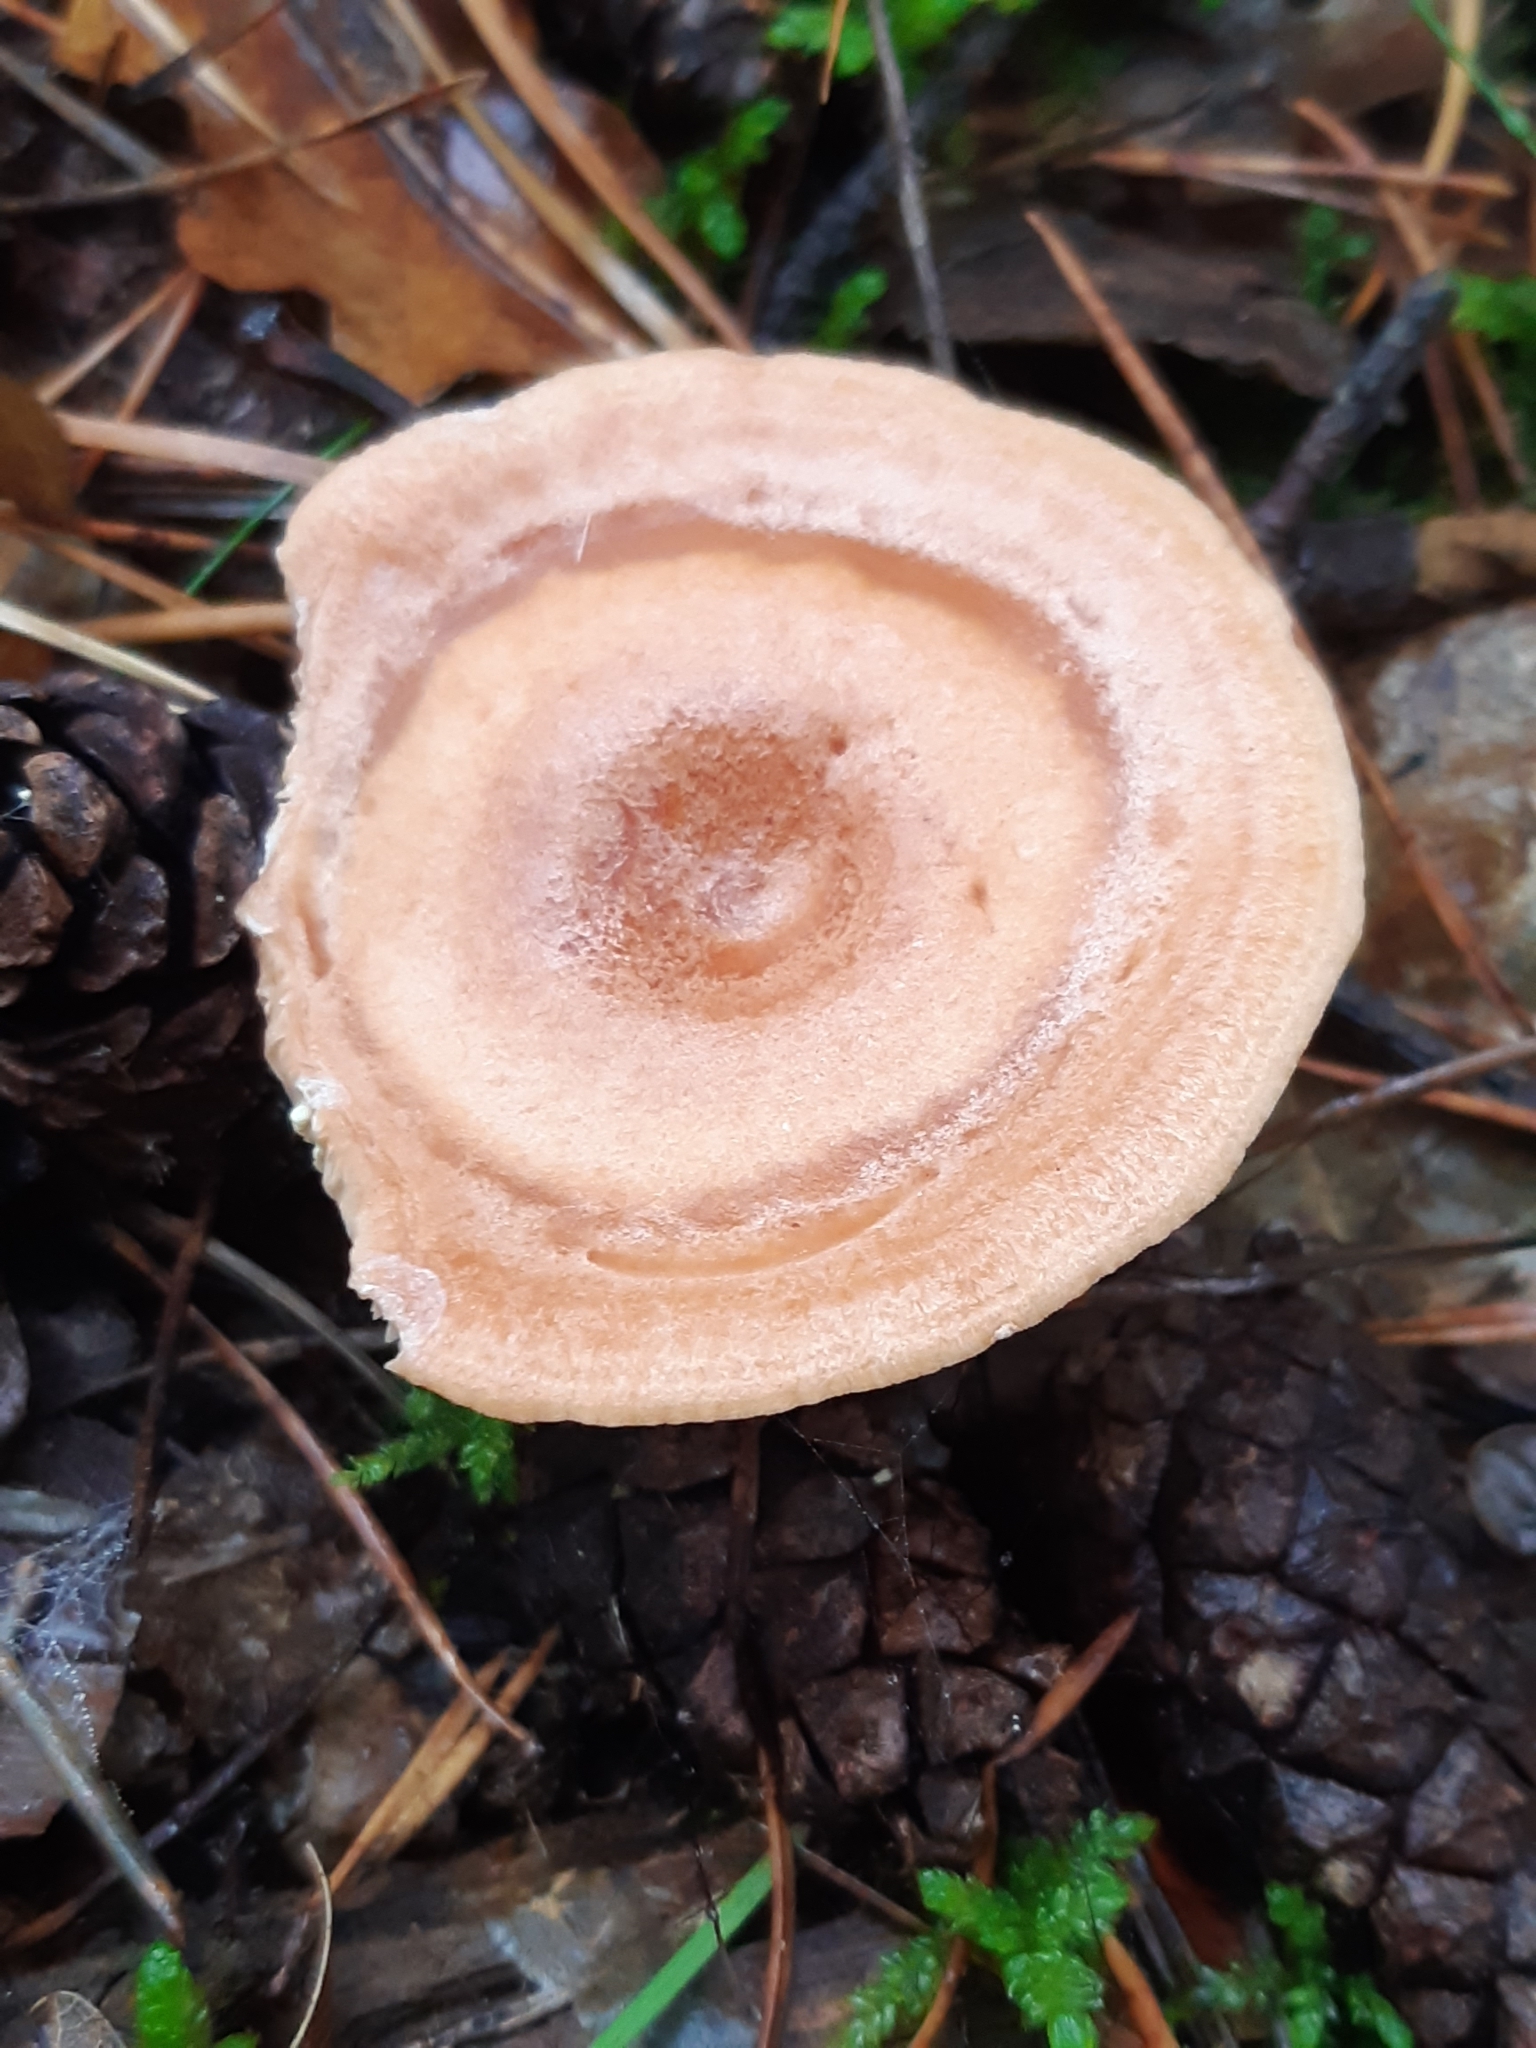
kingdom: Fungi
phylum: Basidiomycota
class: Agaricomycetes
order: Russulales
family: Russulaceae
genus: Lactarius
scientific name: Lactarius zonarius
